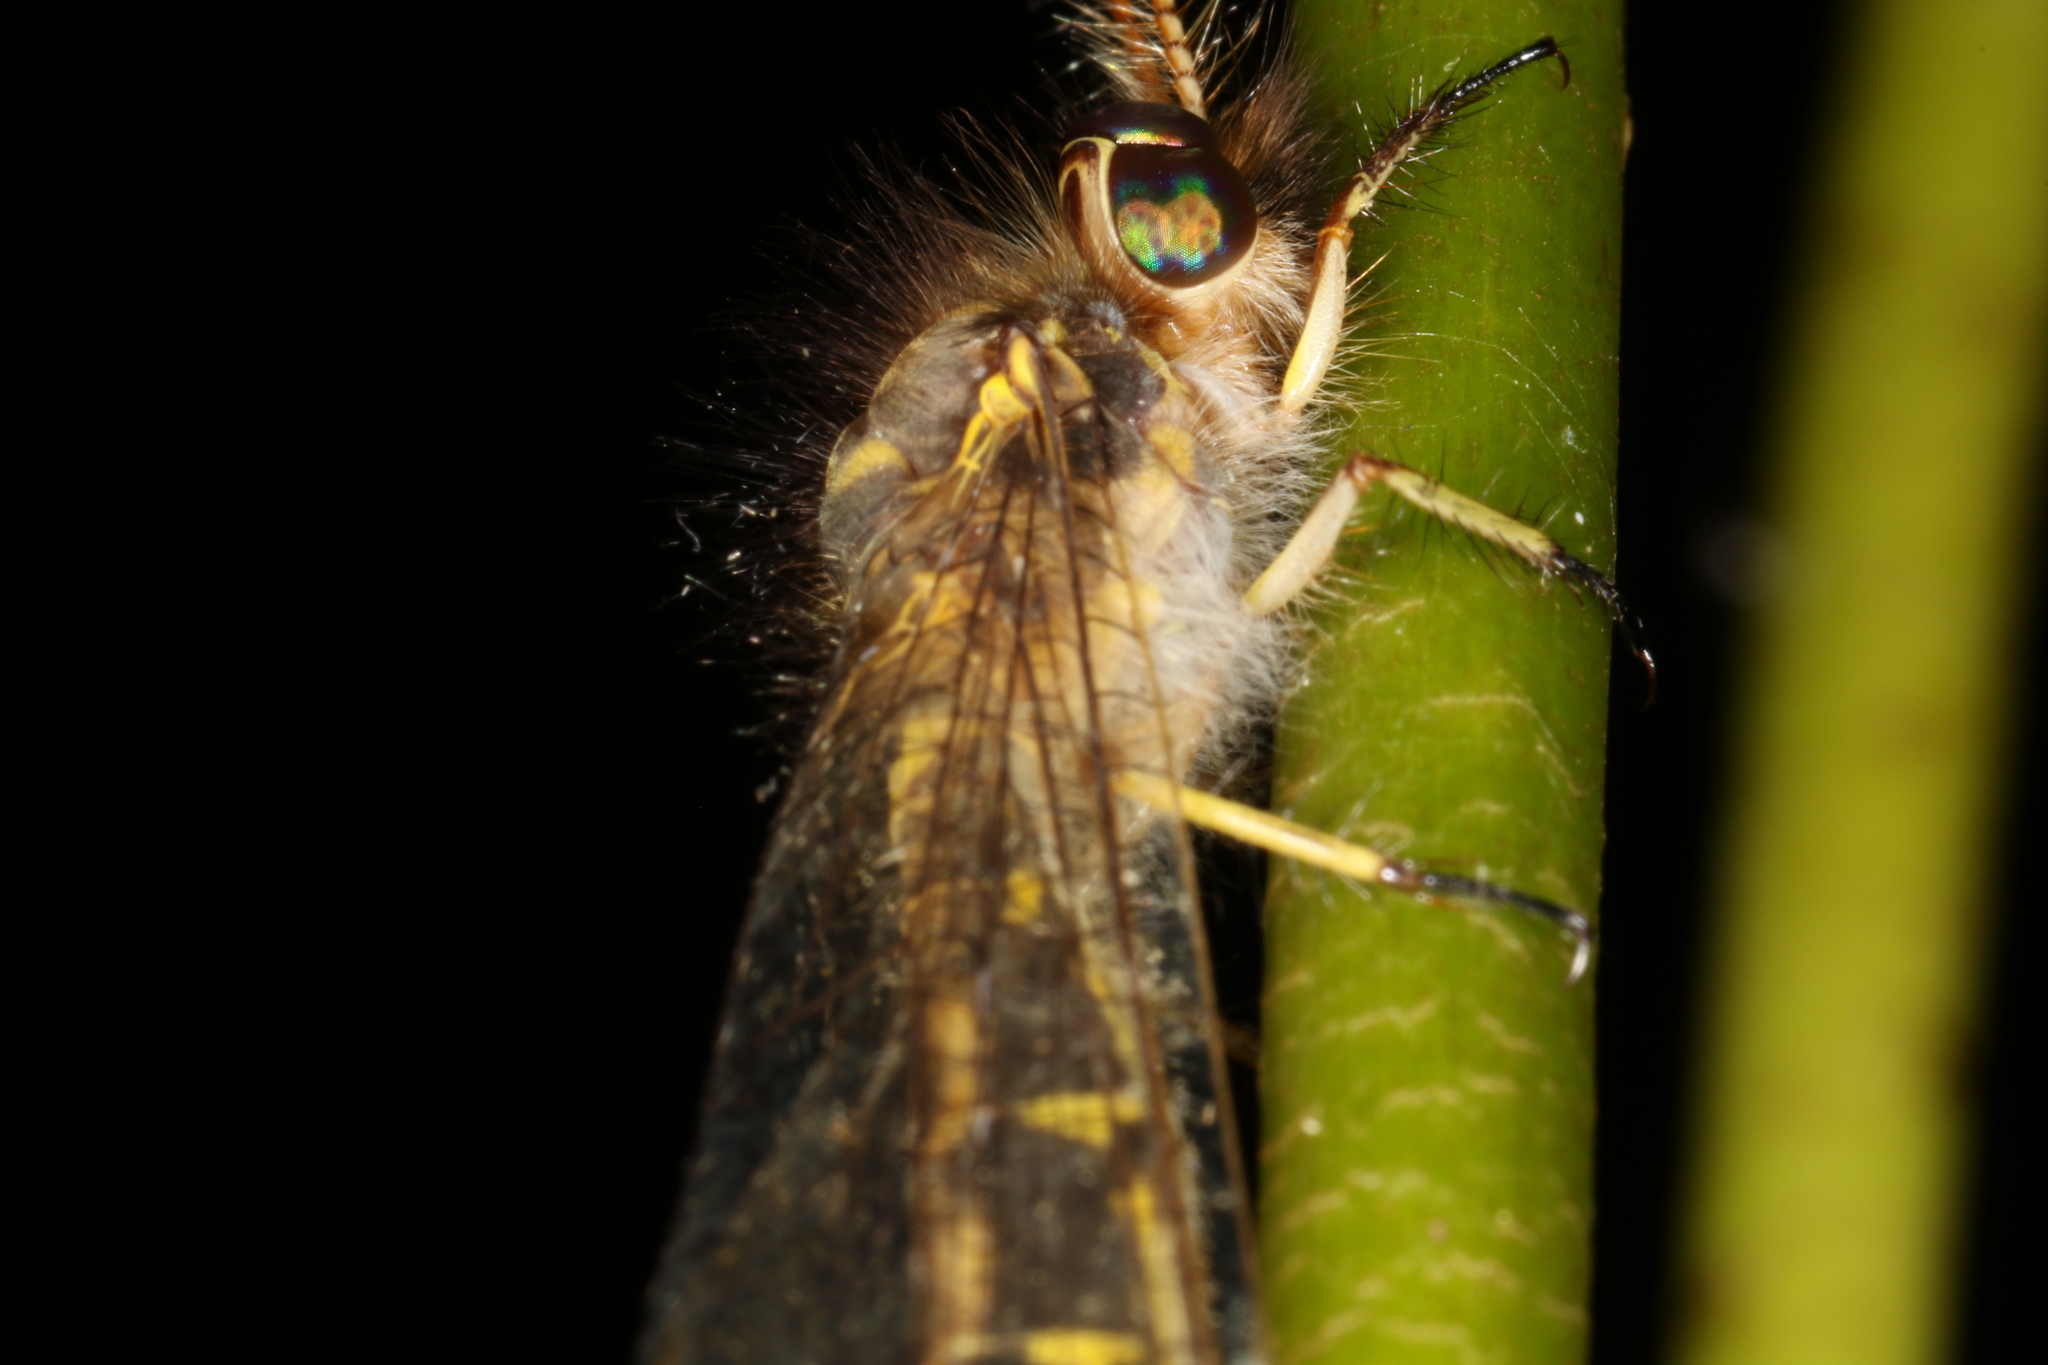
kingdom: Animalia
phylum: Arthropoda
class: Insecta
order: Neuroptera
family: Ascalaphidae
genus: Ameropterus
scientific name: Ameropterus versicolor
